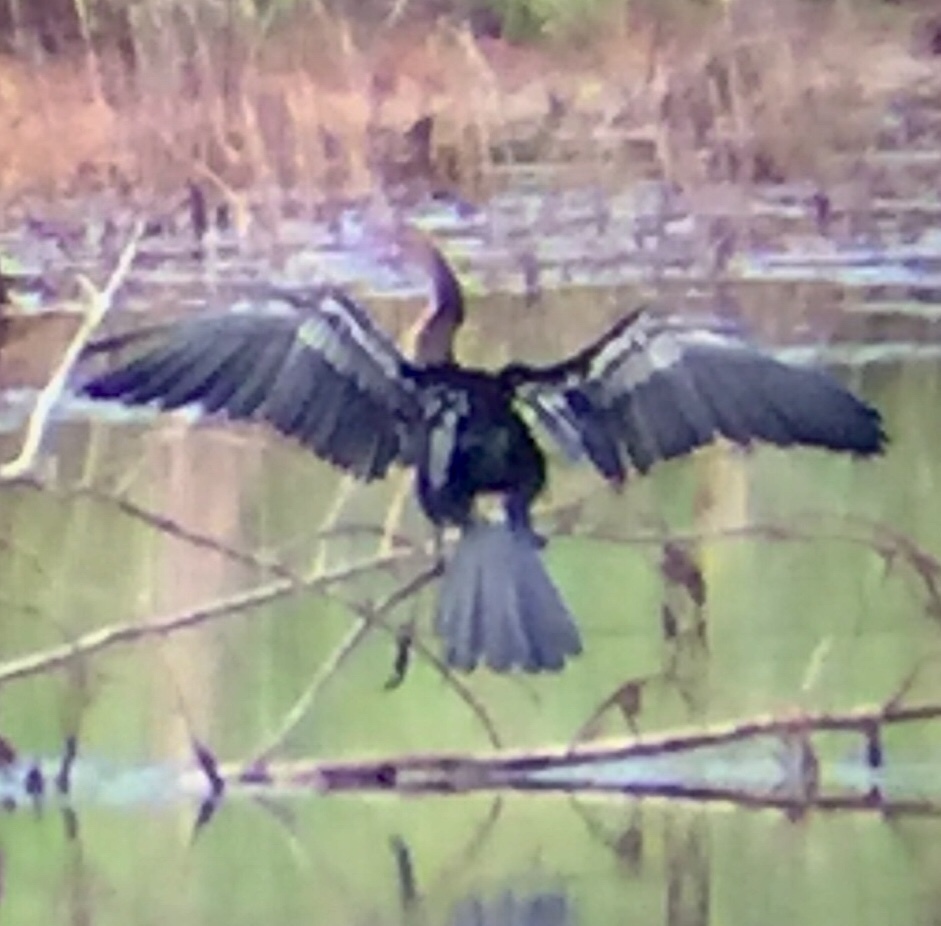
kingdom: Animalia
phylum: Chordata
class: Aves
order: Suliformes
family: Anhingidae
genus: Anhinga
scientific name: Anhinga anhinga
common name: Anhinga
